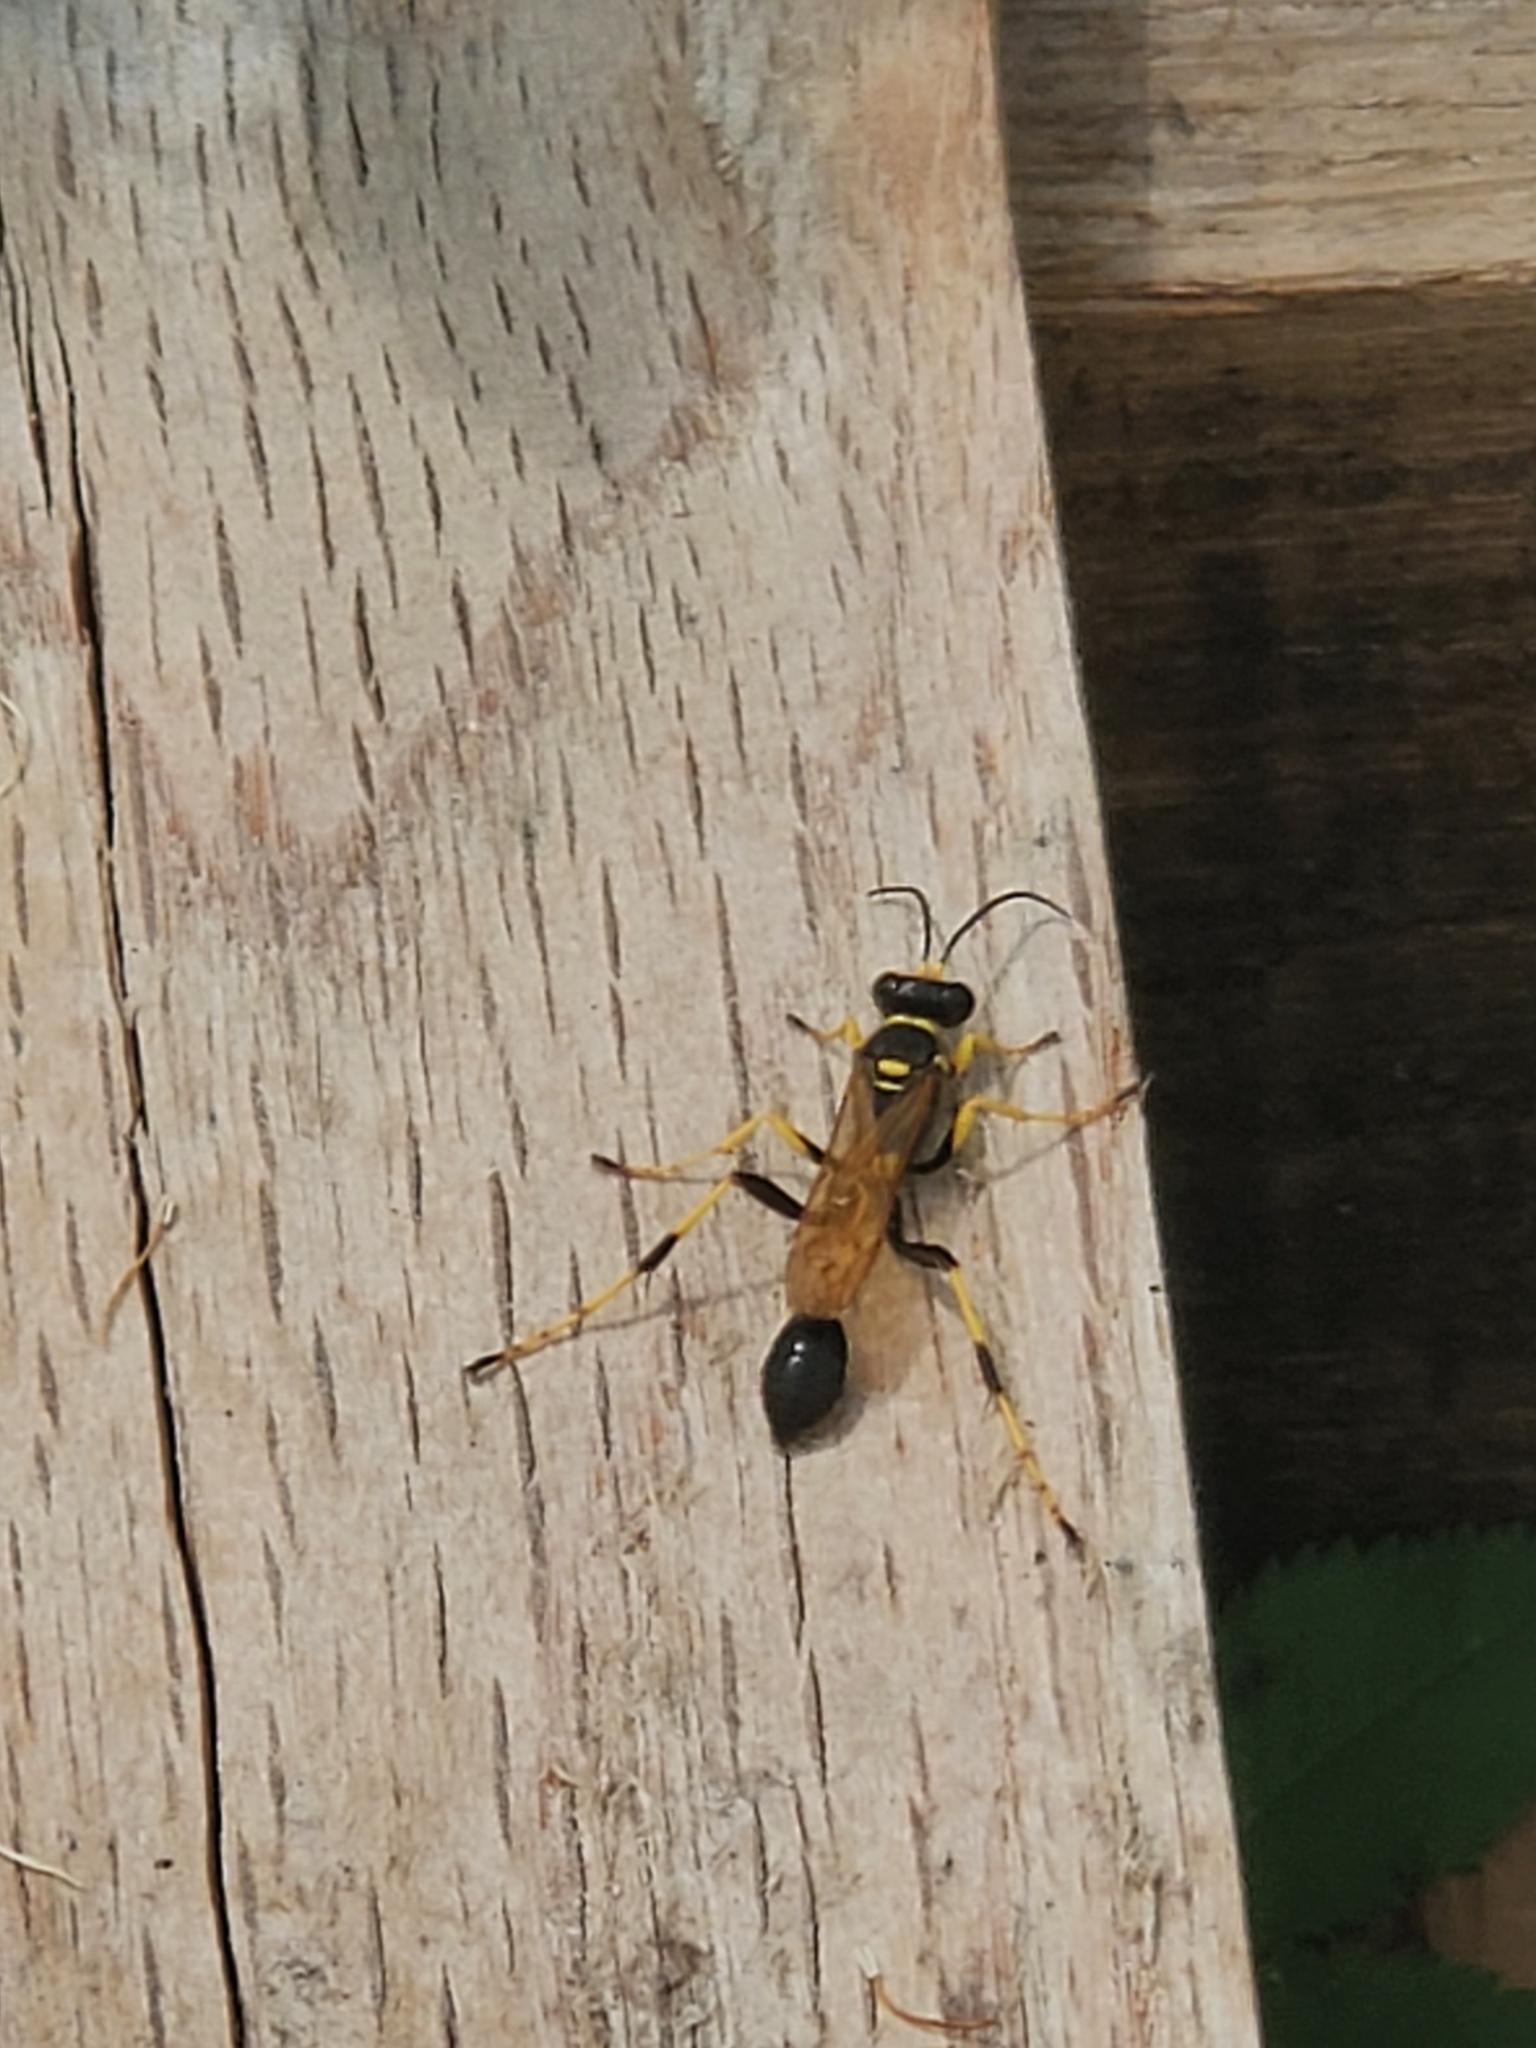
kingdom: Animalia
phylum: Arthropoda
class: Insecta
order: Hymenoptera
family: Sphecidae
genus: Sceliphron
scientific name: Sceliphron caementarium
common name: Mud dauber
